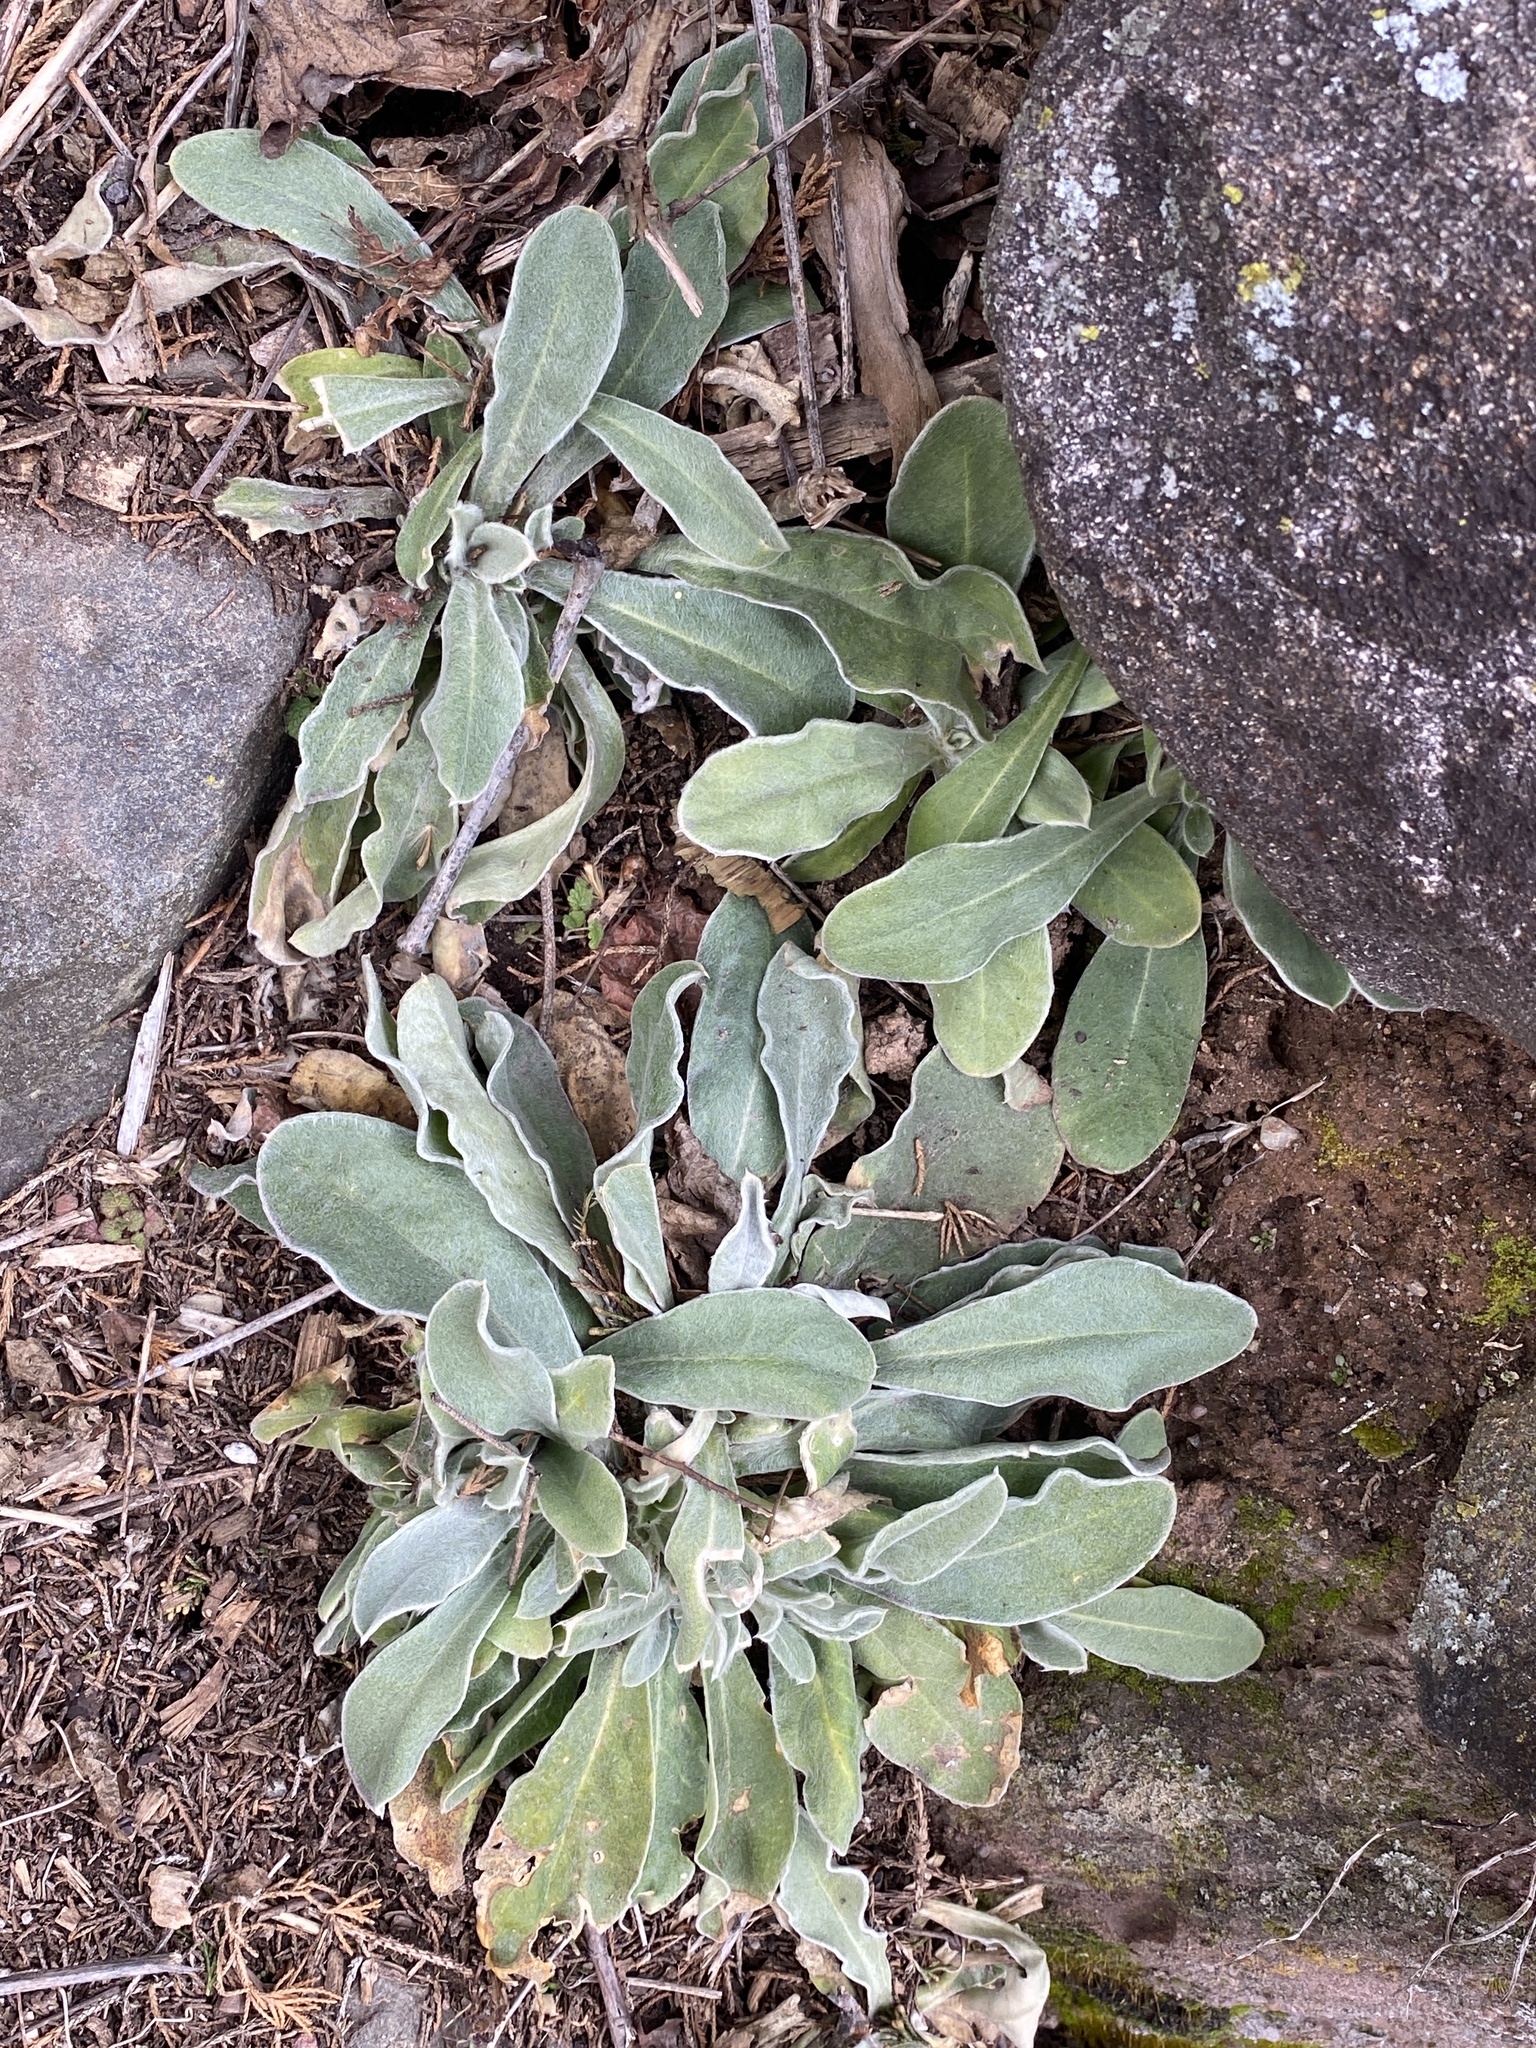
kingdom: Plantae
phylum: Tracheophyta
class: Magnoliopsida
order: Caryophyllales
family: Caryophyllaceae
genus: Silene
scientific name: Silene coronaria
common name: Rose campion
